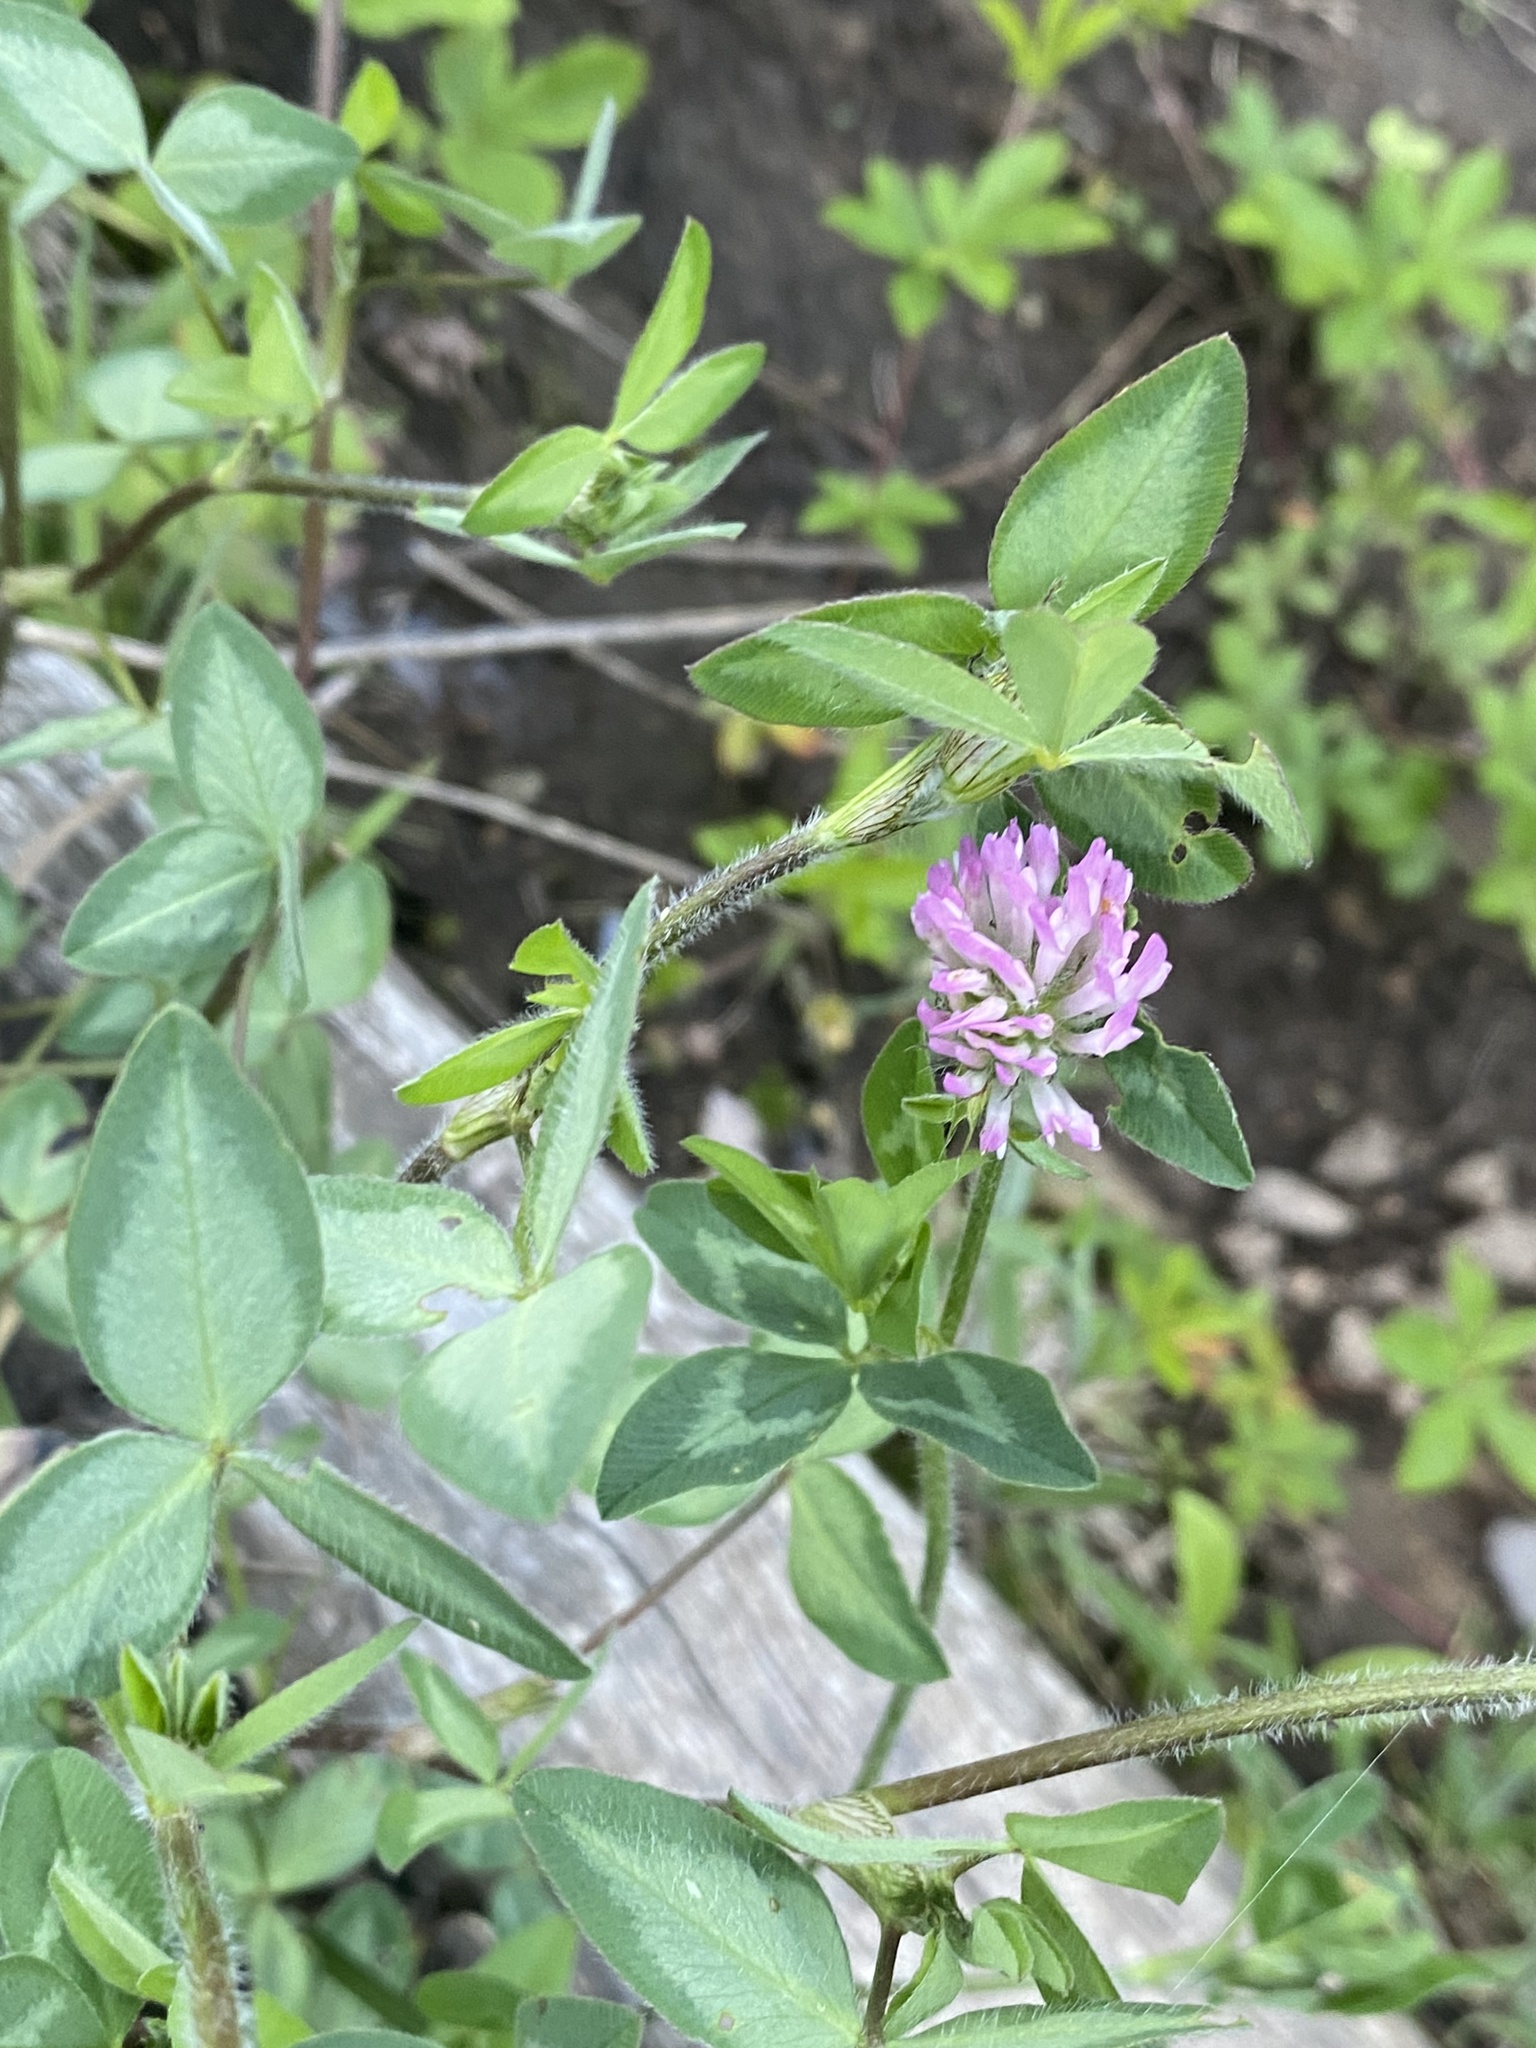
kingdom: Plantae
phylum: Tracheophyta
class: Magnoliopsida
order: Fabales
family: Fabaceae
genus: Trifolium
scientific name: Trifolium pratense
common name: Red clover
